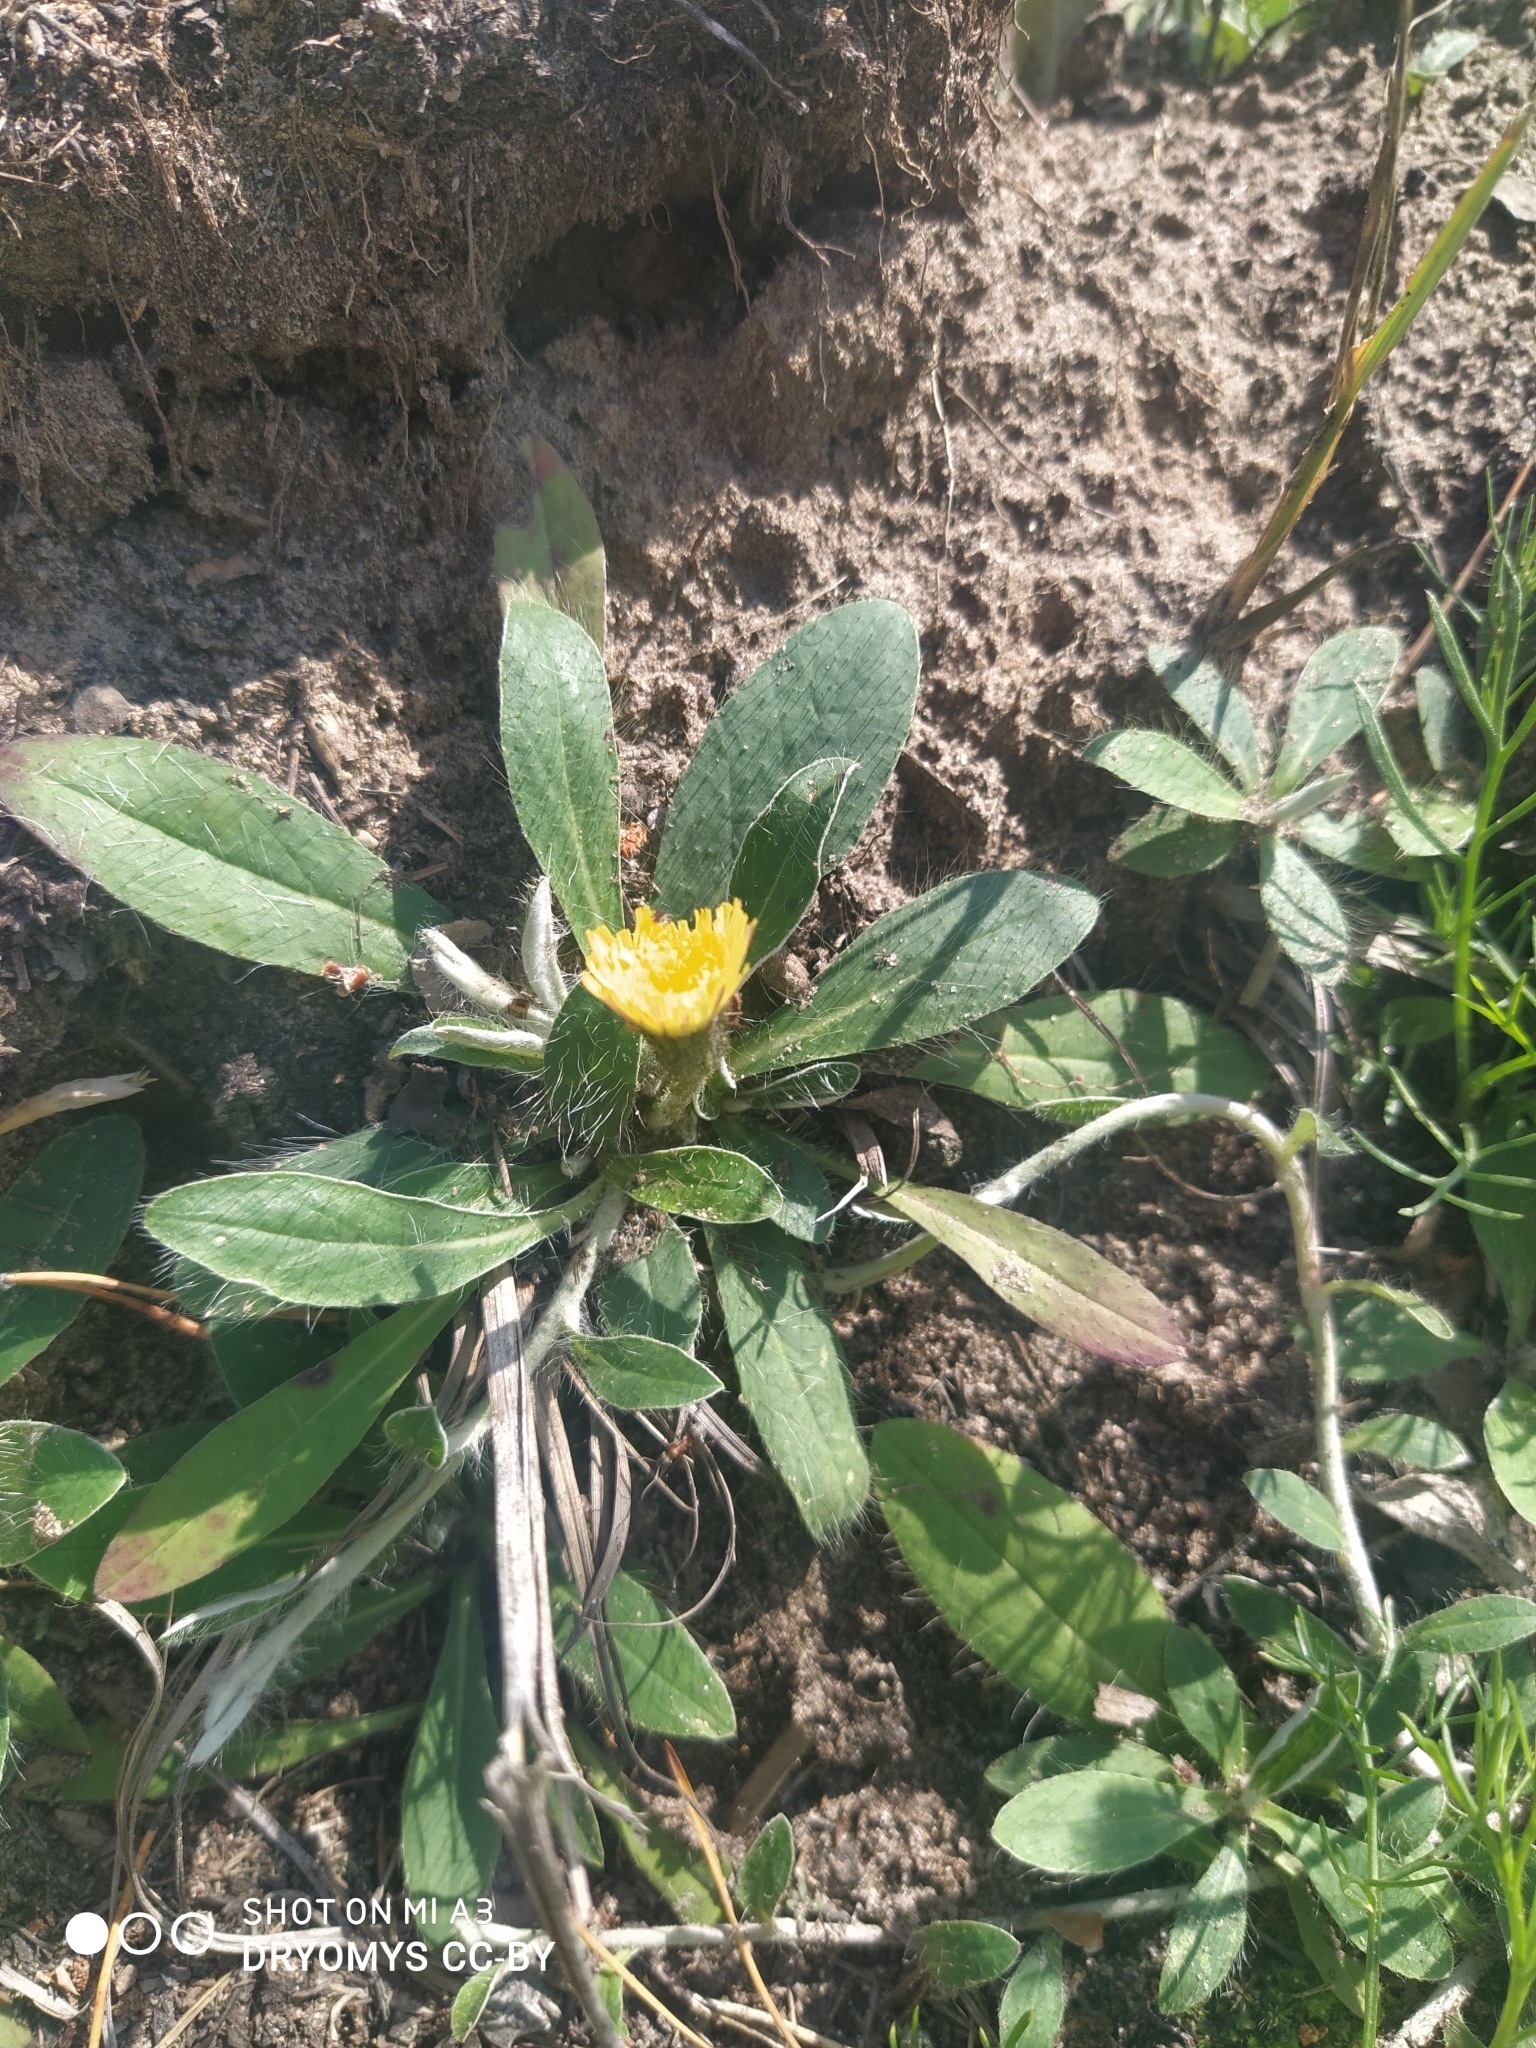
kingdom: Plantae
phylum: Tracheophyta
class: Magnoliopsida
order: Asterales
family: Asteraceae
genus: Pilosella
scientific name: Pilosella officinarum
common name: Mouse-ear hawkweed
